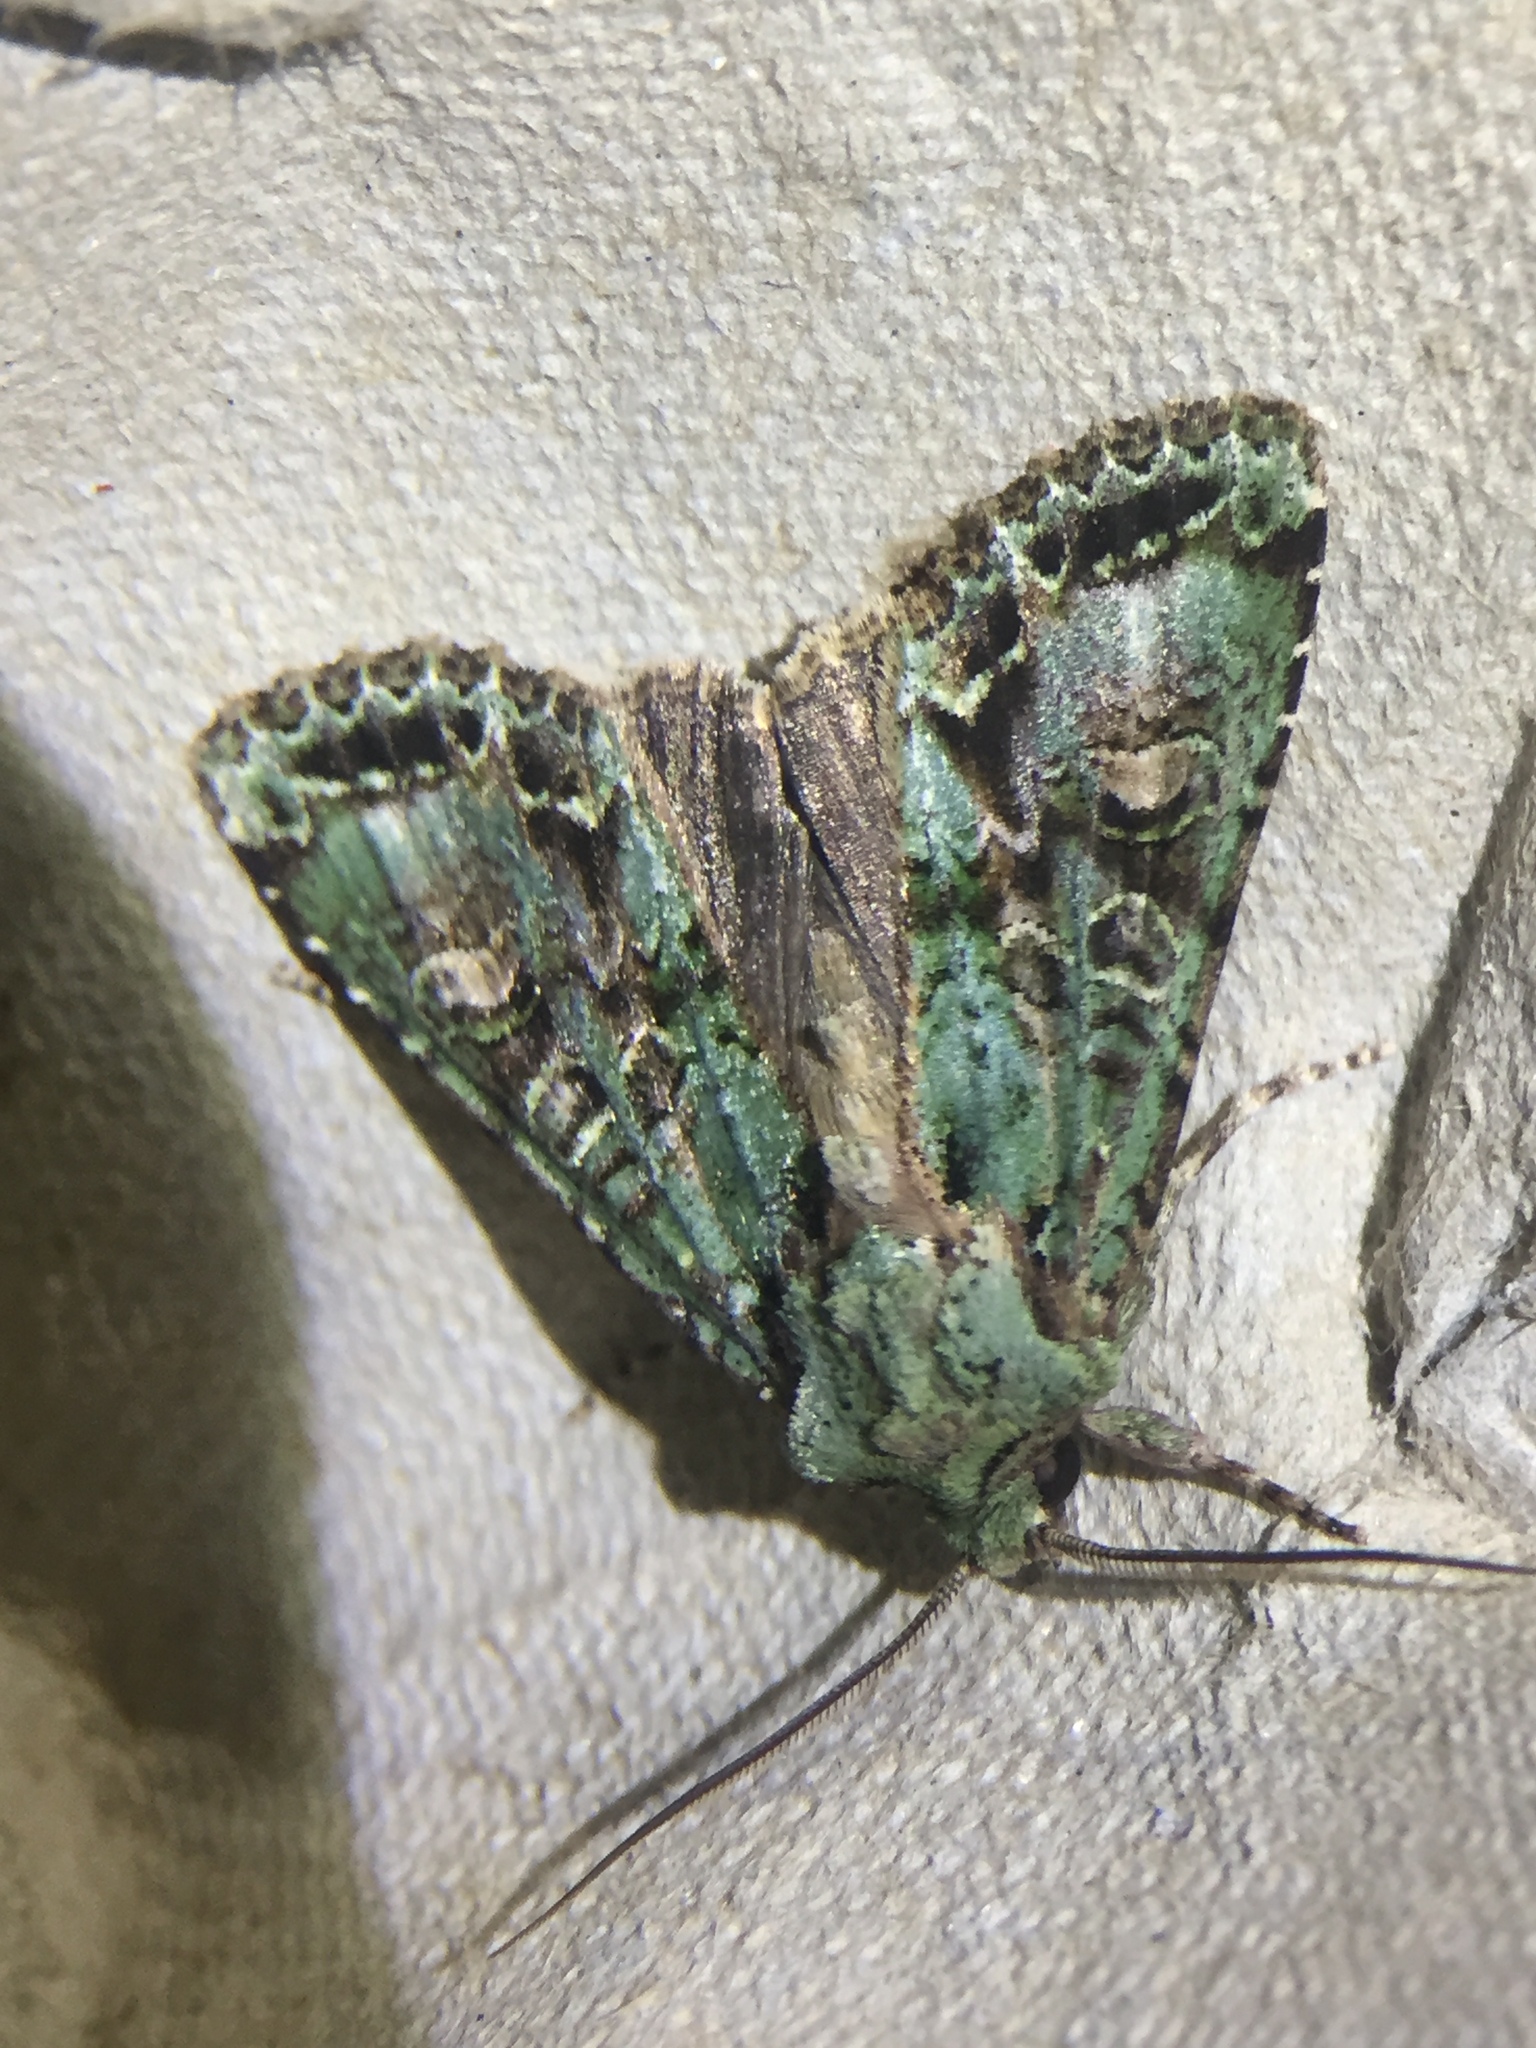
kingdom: Animalia
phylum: Arthropoda
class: Insecta
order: Lepidoptera
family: Noctuidae
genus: Ichneutica
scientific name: Ichneutica
